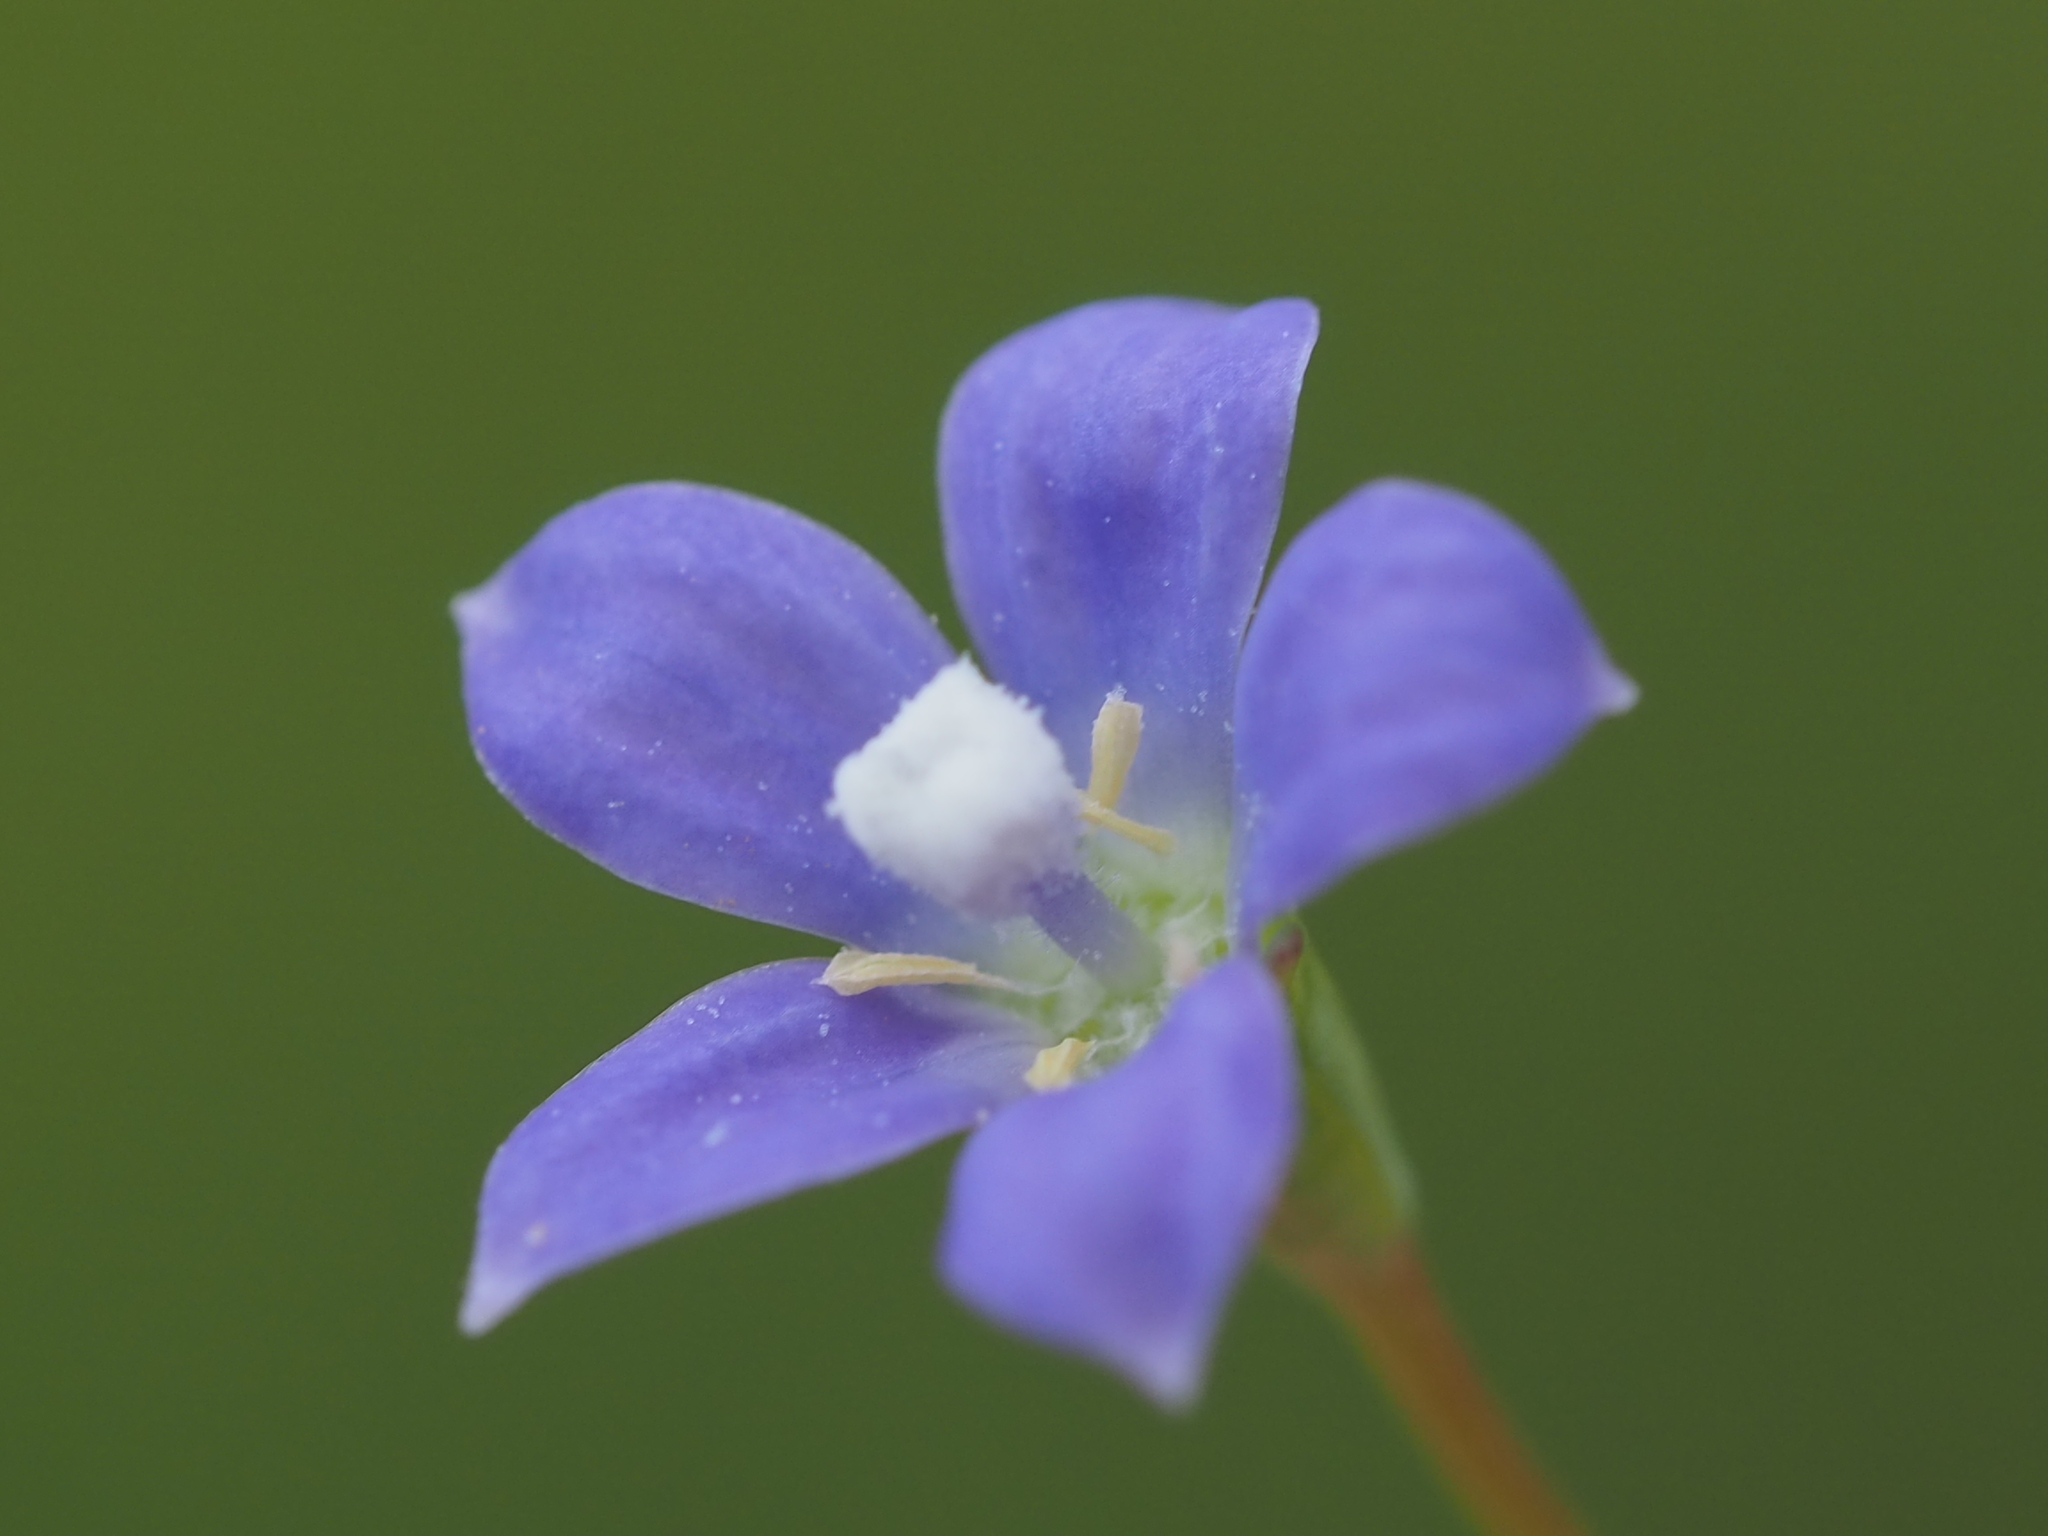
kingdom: Plantae
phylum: Tracheophyta
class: Magnoliopsida
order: Asterales
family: Campanulaceae
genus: Wahlenbergia
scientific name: Wahlenbergia marginata
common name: Southern rockbell
